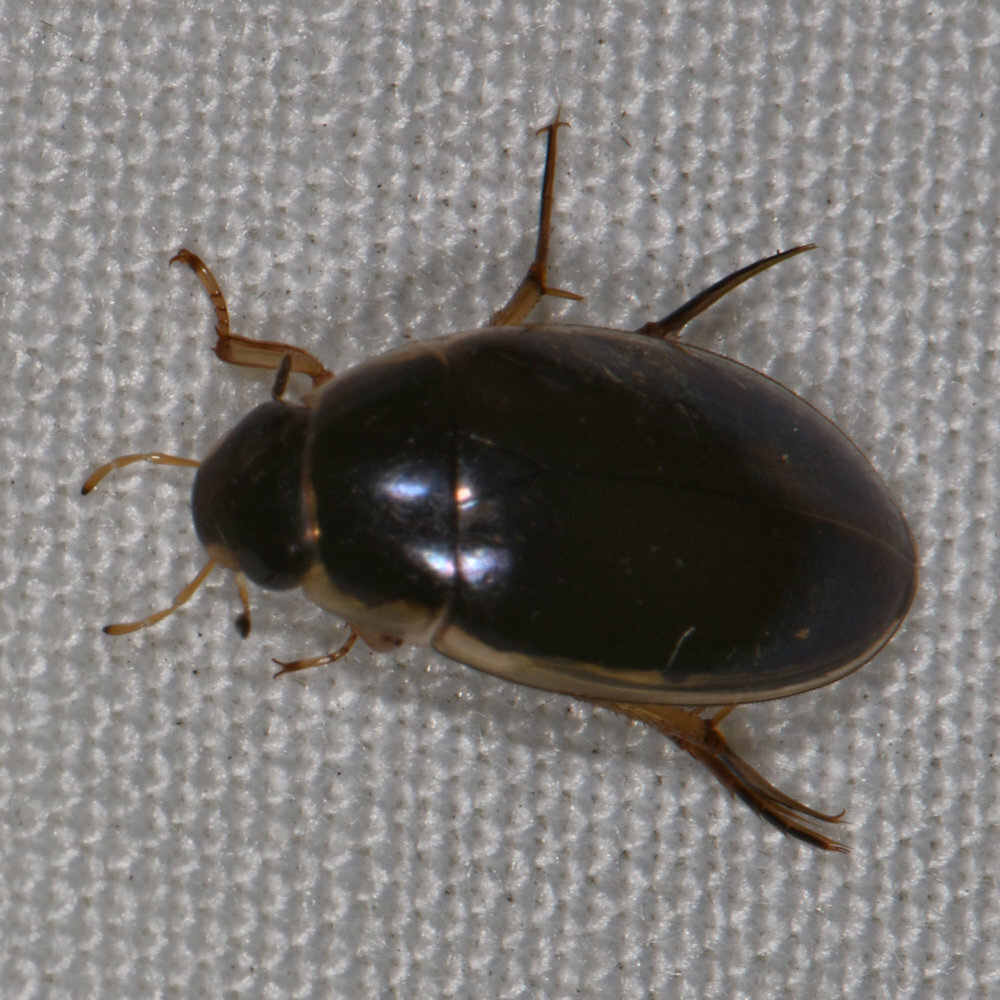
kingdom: Animalia
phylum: Arthropoda
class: Insecta
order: Coleoptera
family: Hydrophilidae
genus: Tropisternus
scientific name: Tropisternus lateralis
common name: Lateral-banded water scavenger beetle
